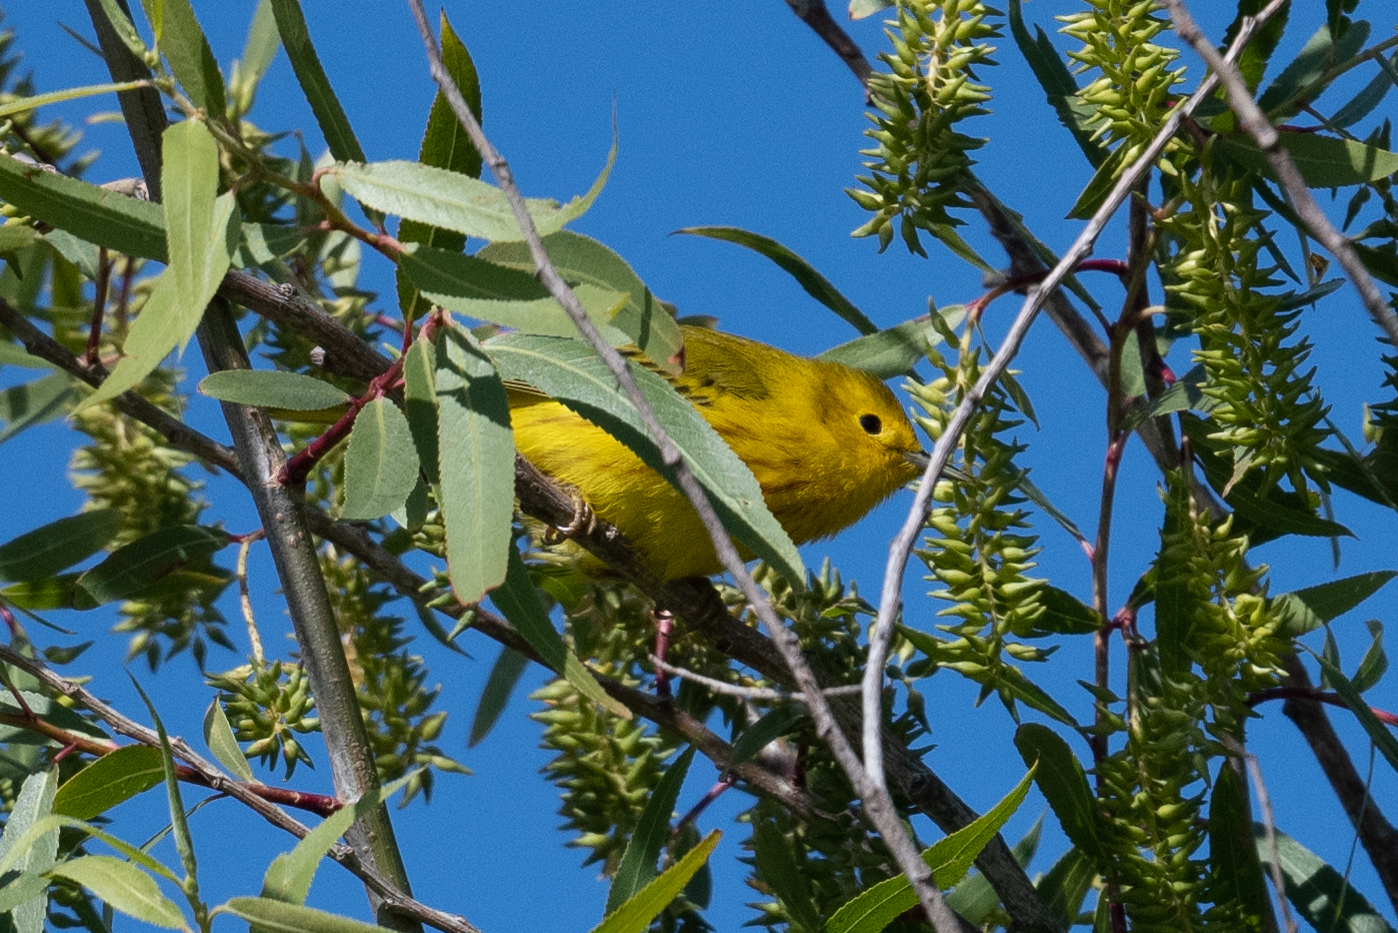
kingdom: Animalia
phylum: Chordata
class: Aves
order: Passeriformes
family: Parulidae
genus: Setophaga
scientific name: Setophaga petechia
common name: Yellow warbler
